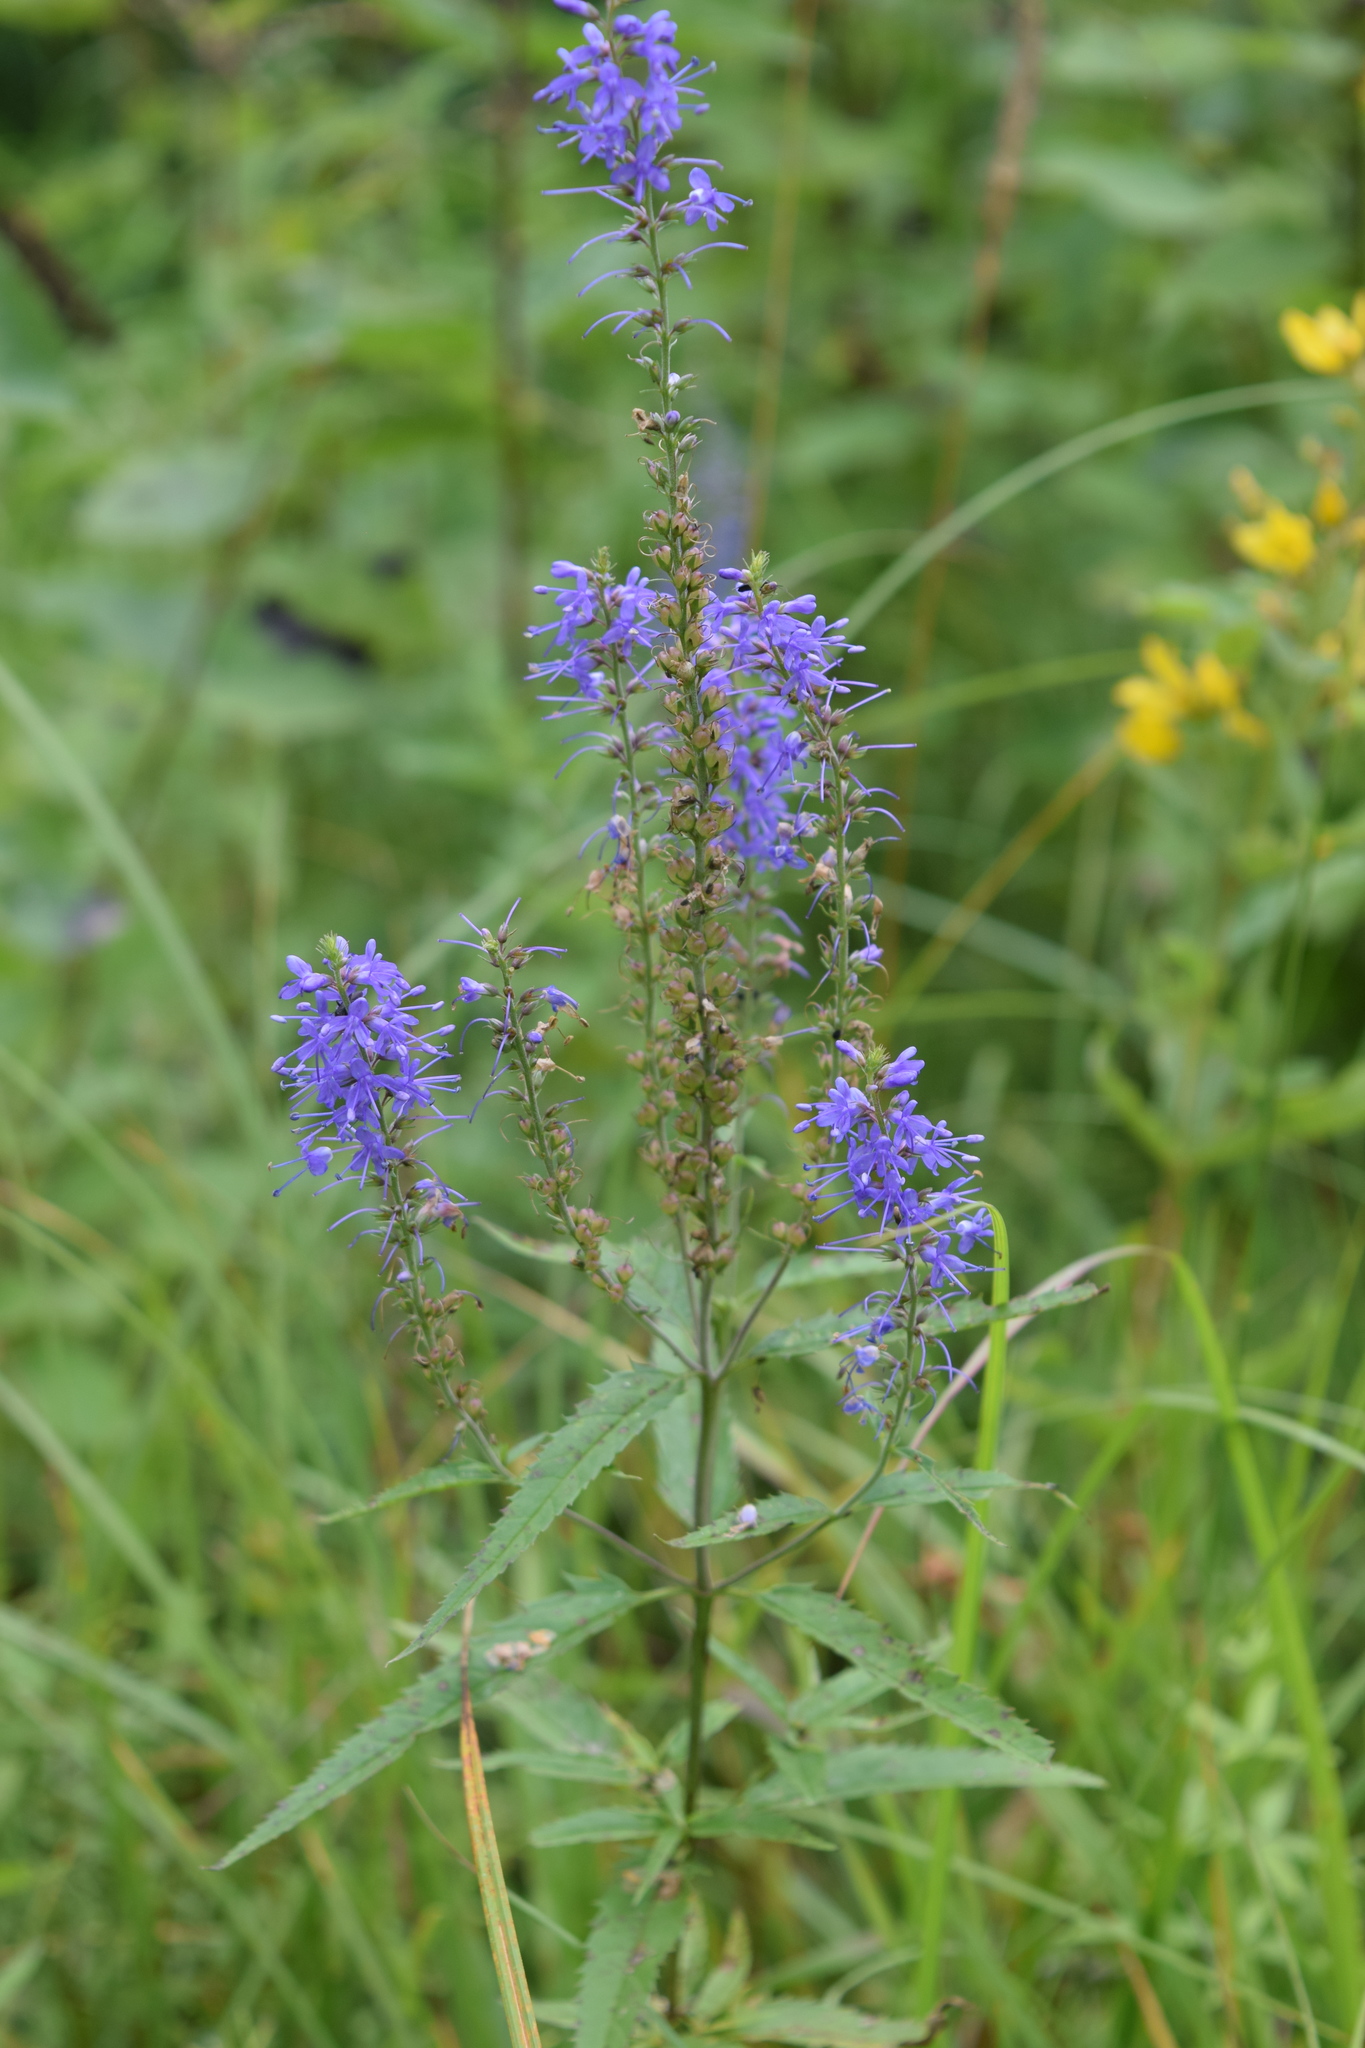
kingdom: Plantae
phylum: Tracheophyta
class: Magnoliopsida
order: Lamiales
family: Plantaginaceae
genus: Veronica
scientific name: Veronica longifolia
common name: Garden speedwell
